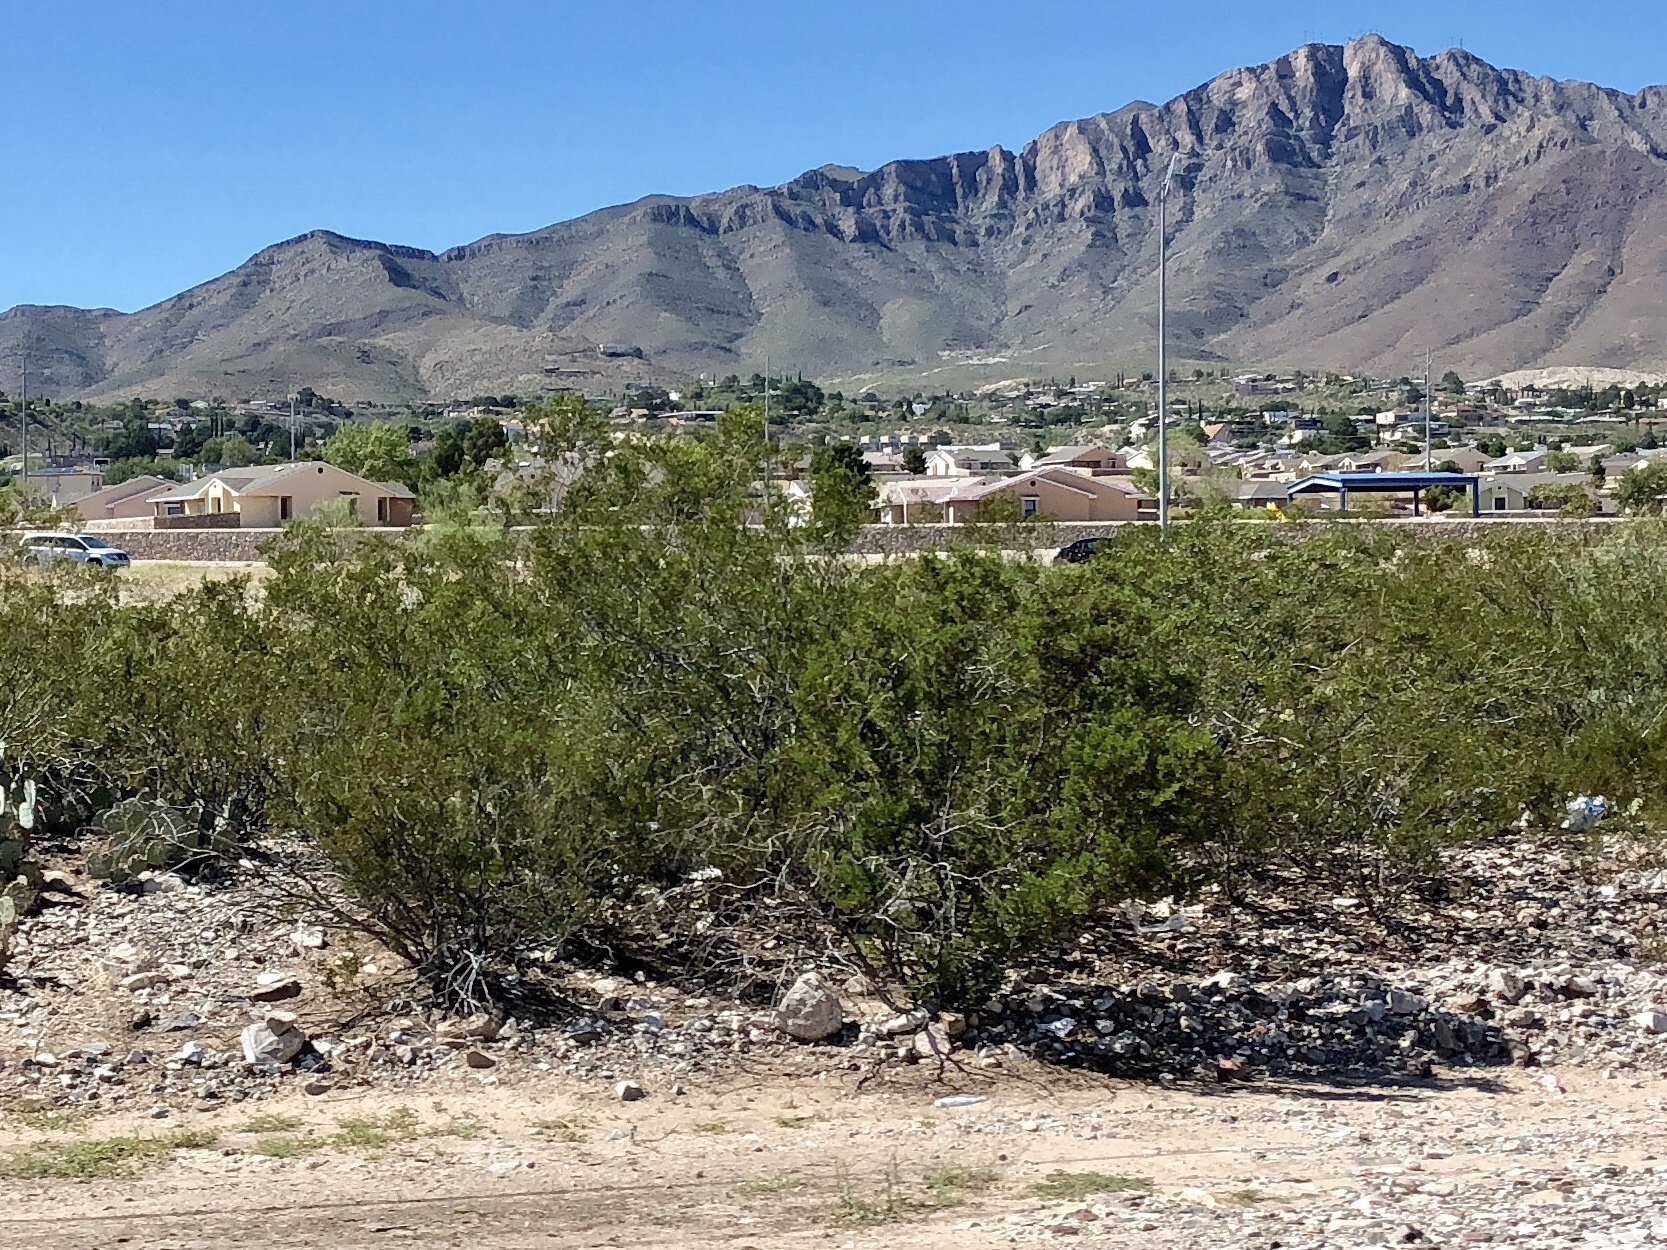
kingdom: Plantae
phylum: Tracheophyta
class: Magnoliopsida
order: Zygophyllales
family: Zygophyllaceae
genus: Larrea
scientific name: Larrea tridentata
